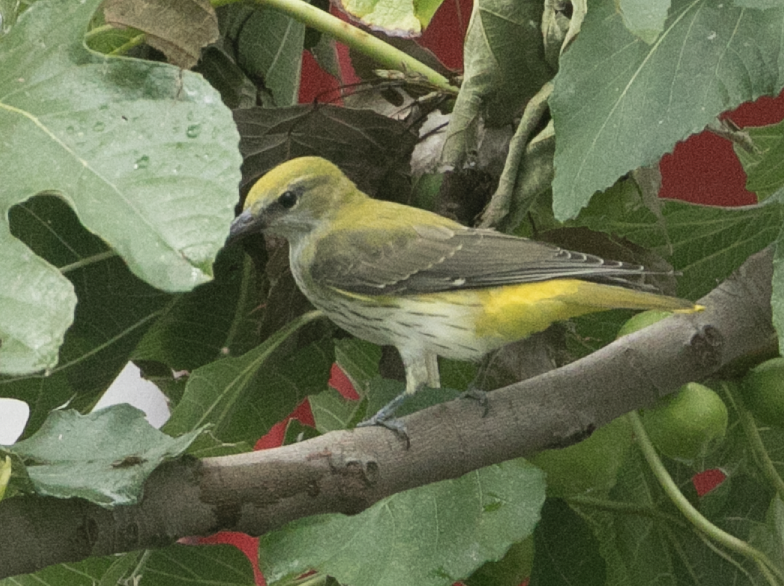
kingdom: Animalia
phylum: Chordata
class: Aves
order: Passeriformes
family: Oriolidae
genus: Oriolus
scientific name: Oriolus oriolus
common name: Eurasian golden oriole
